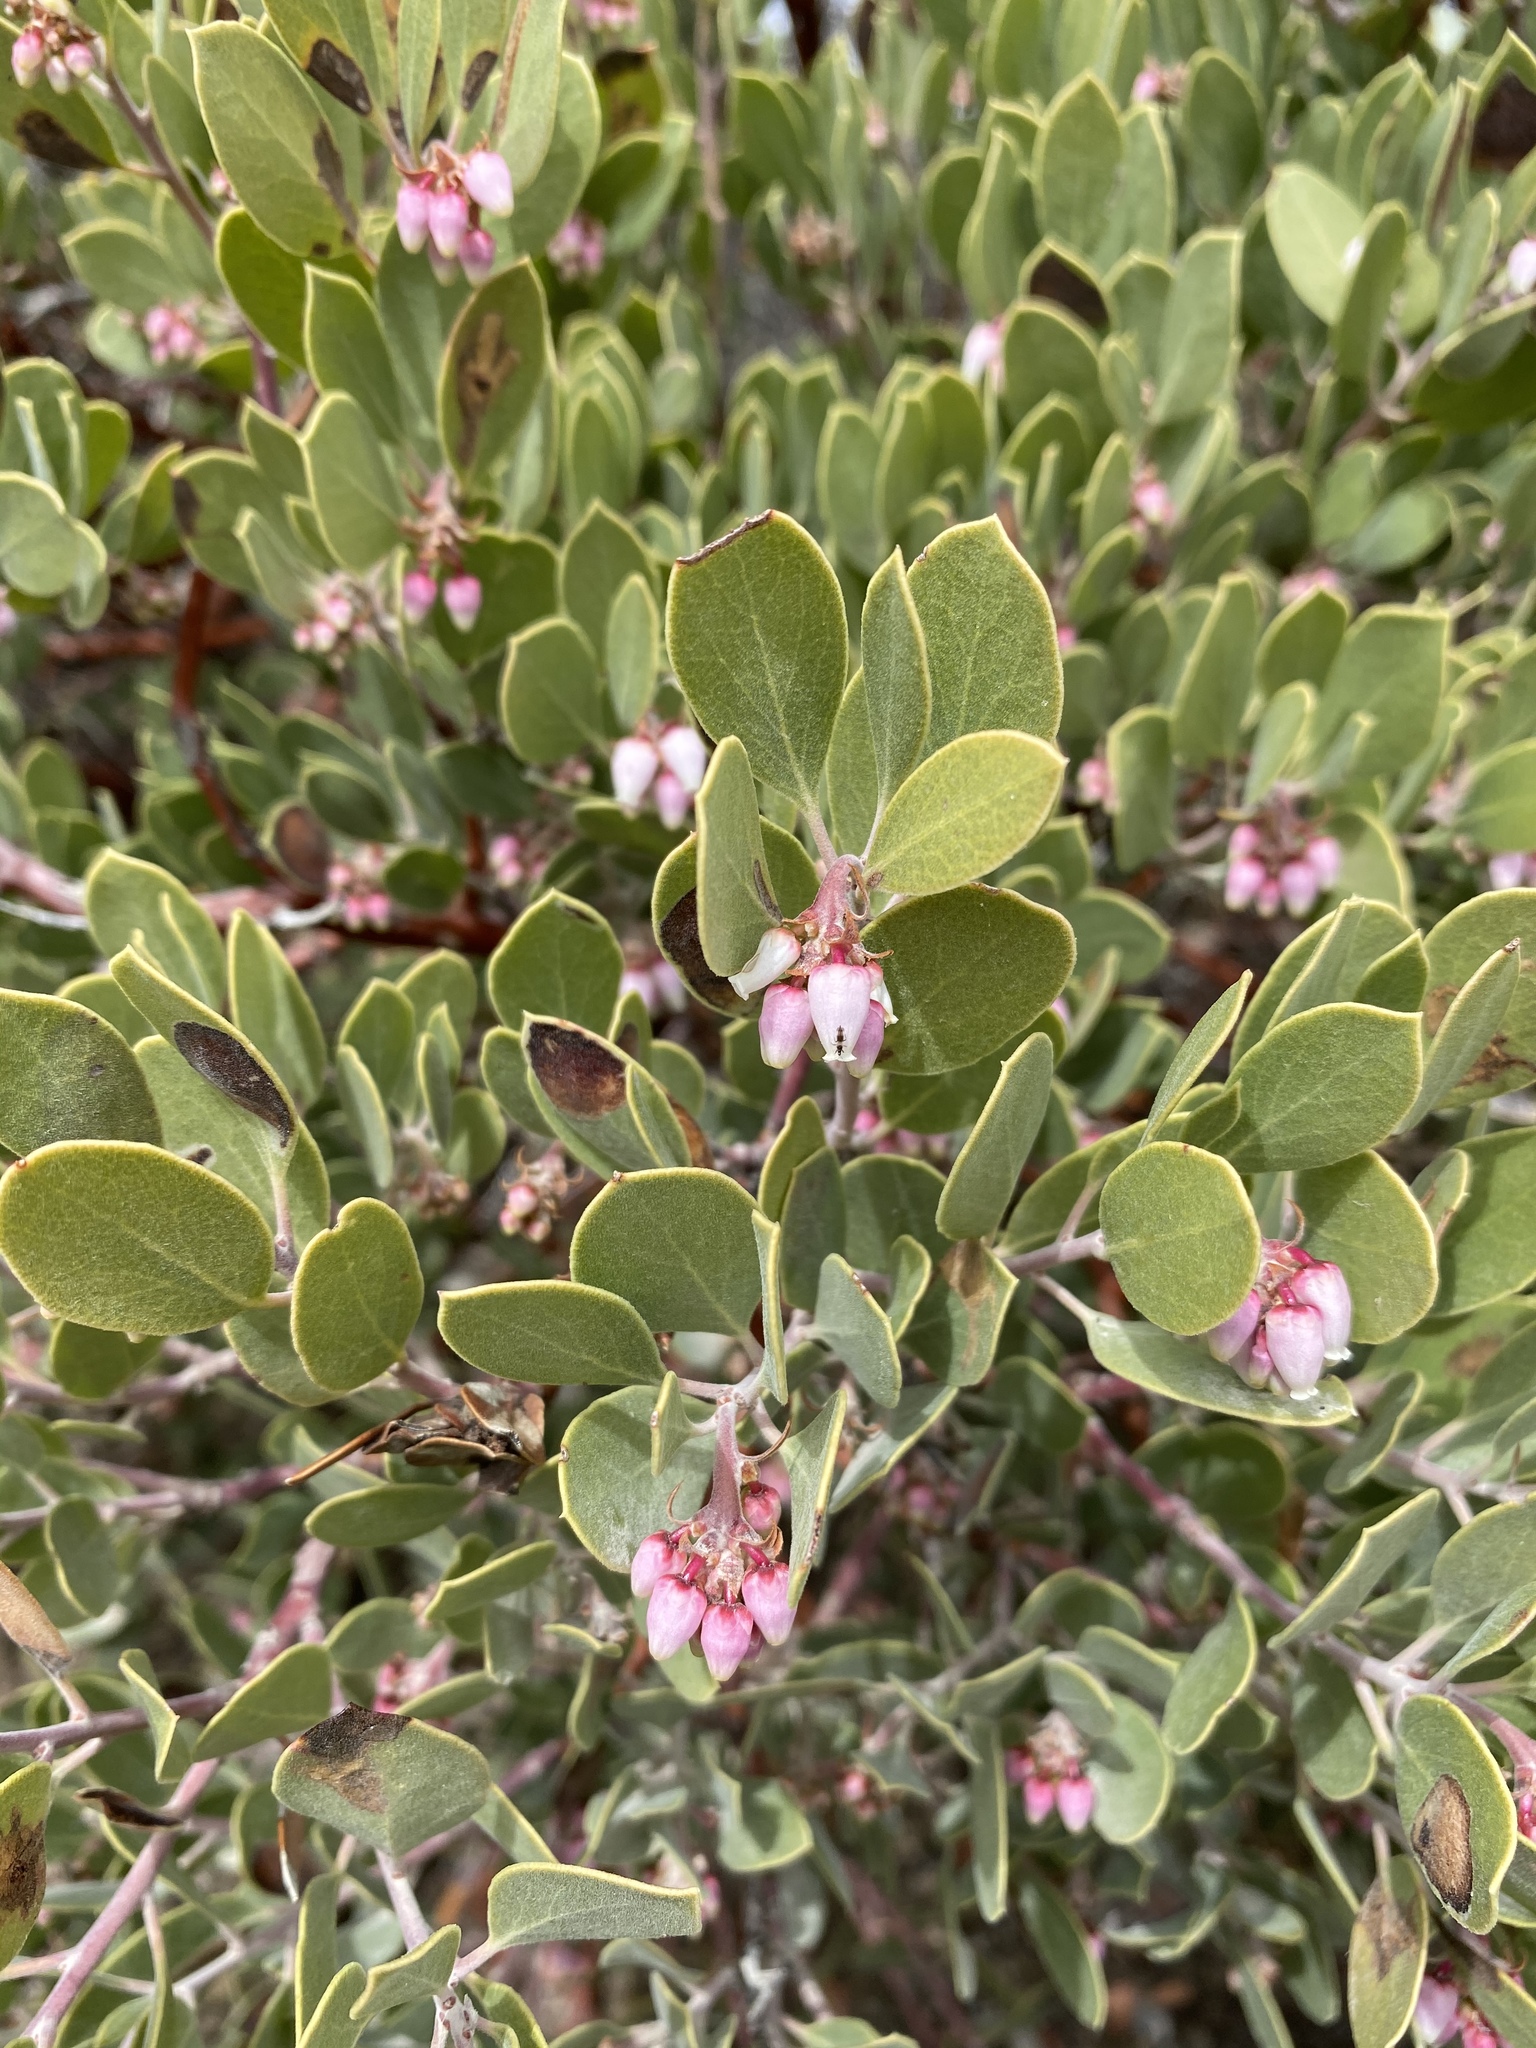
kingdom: Plantae
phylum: Tracheophyta
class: Magnoliopsida
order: Ericales
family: Ericaceae
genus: Arctostaphylos
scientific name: Arctostaphylos pungens
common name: Mexican manzanita
